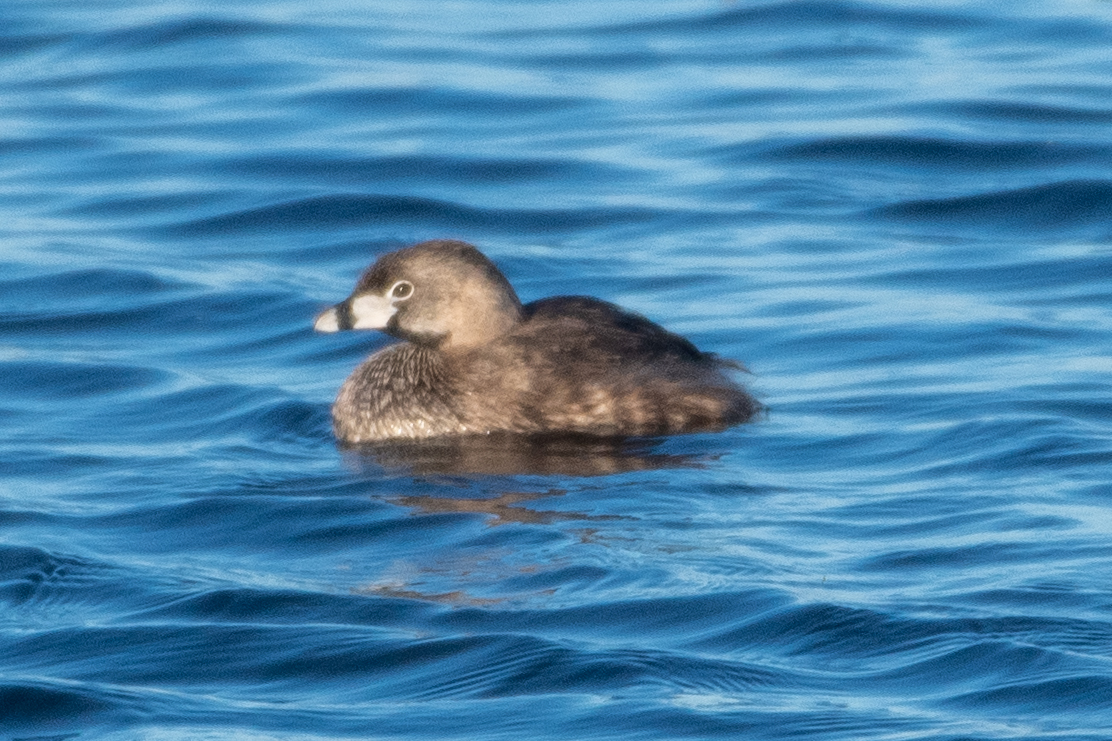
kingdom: Animalia
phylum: Chordata
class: Aves
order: Podicipediformes
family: Podicipedidae
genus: Podilymbus
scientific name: Podilymbus podiceps
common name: Pied-billed grebe
